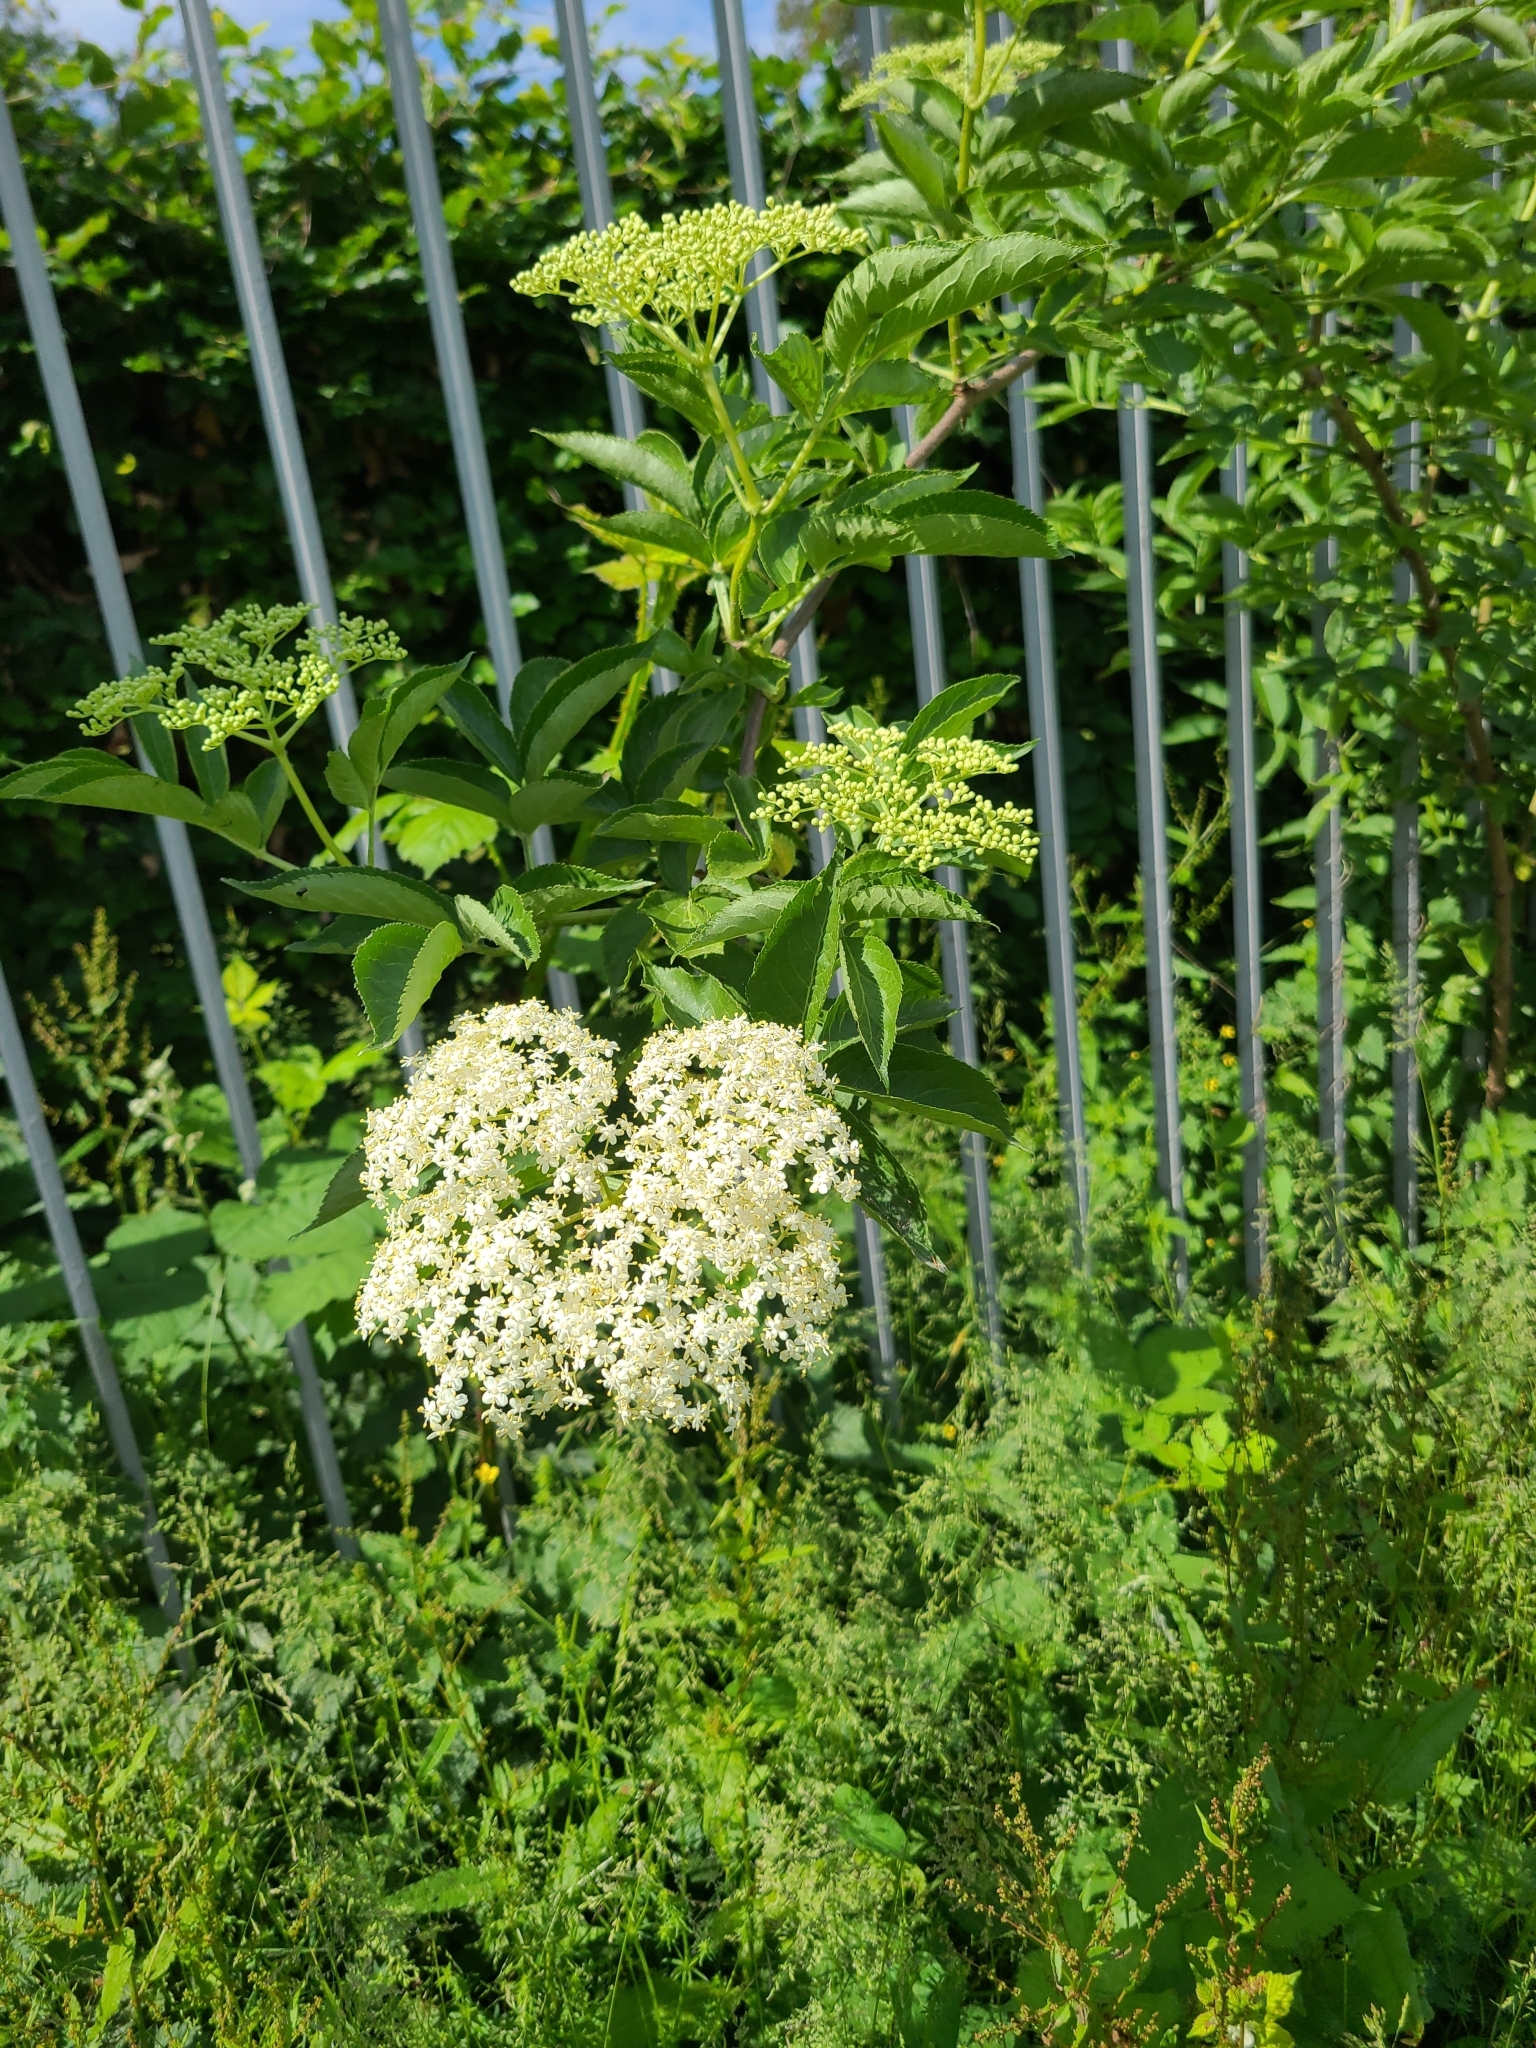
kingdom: Plantae
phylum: Tracheophyta
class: Magnoliopsida
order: Dipsacales
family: Viburnaceae
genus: Sambucus
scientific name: Sambucus nigra
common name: Elder
